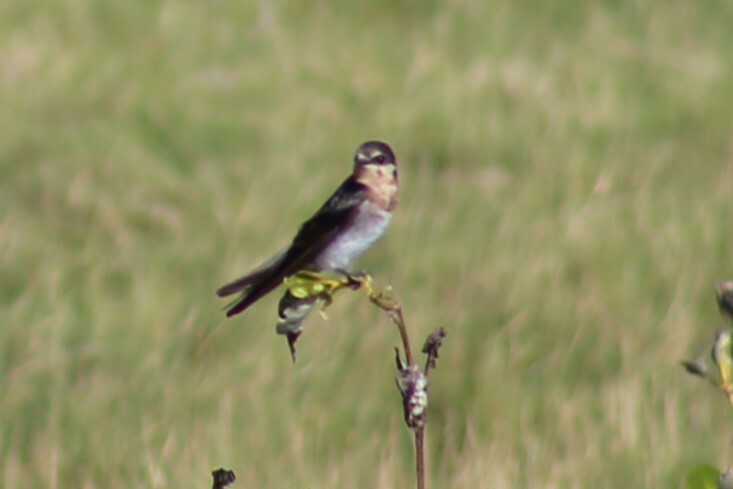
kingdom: Animalia
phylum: Chordata
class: Aves
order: Passeriformes
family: Hirundinidae
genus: Hirundo
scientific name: Hirundo neoxena
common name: Welcome swallow
